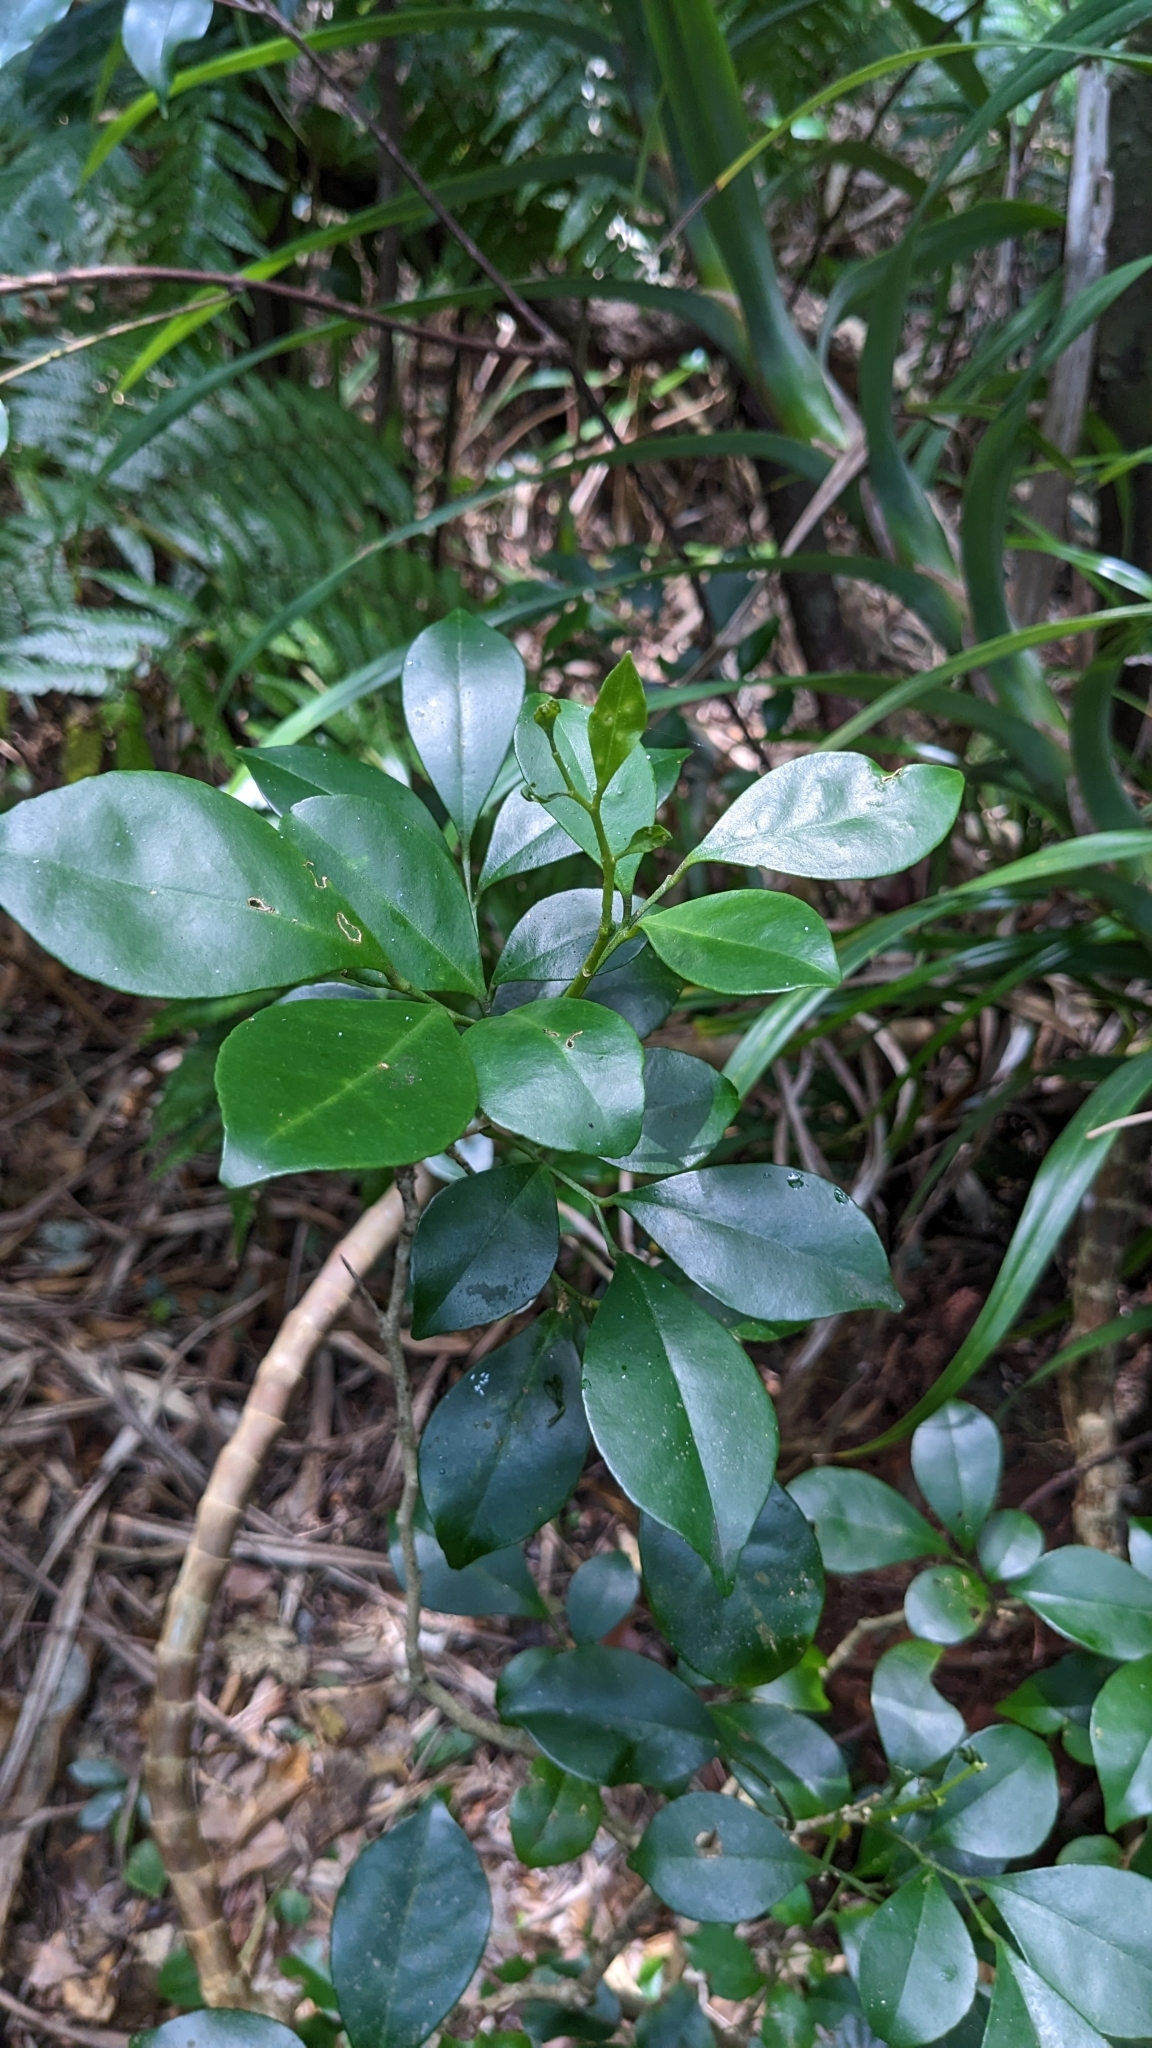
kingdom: Plantae
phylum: Tracheophyta
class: Magnoliopsida
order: Sapindales
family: Rutaceae
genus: Murraya
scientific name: Murraya omphalocarpa
